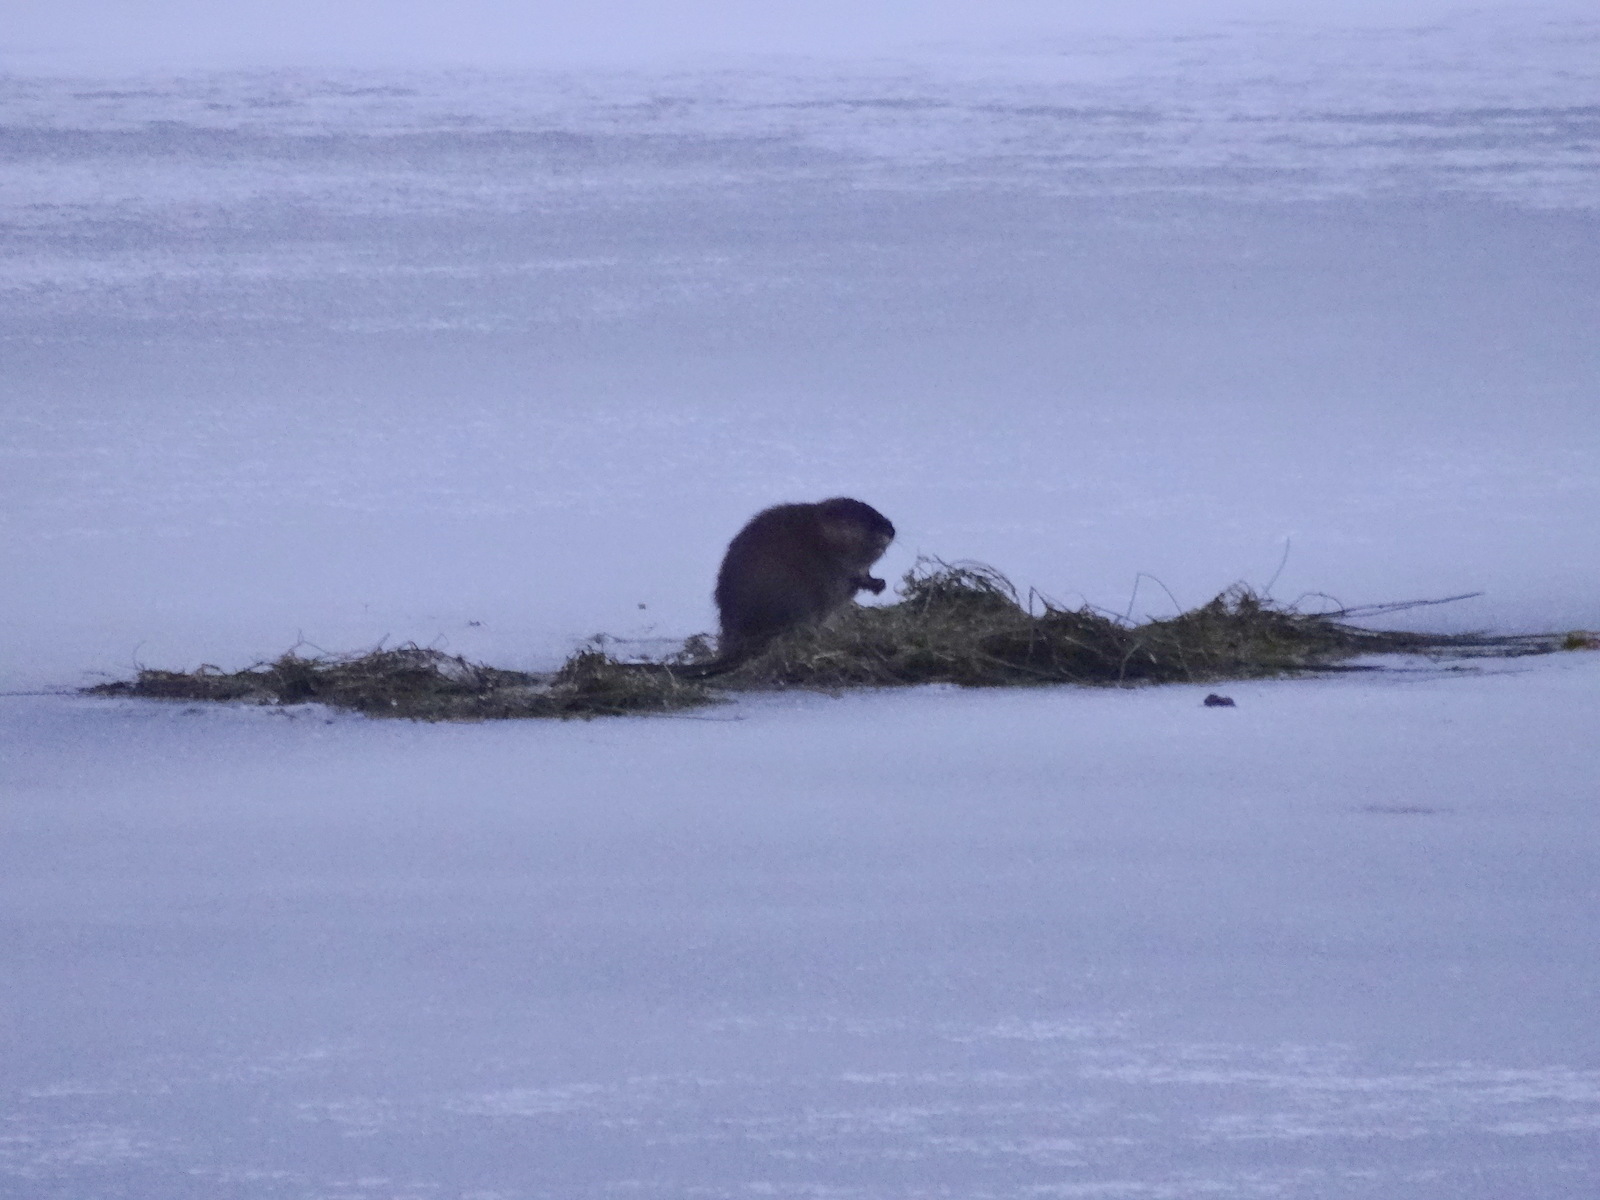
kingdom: Animalia
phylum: Chordata
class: Mammalia
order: Rodentia
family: Cricetidae
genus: Ondatra
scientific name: Ondatra zibethicus
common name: Muskrat
